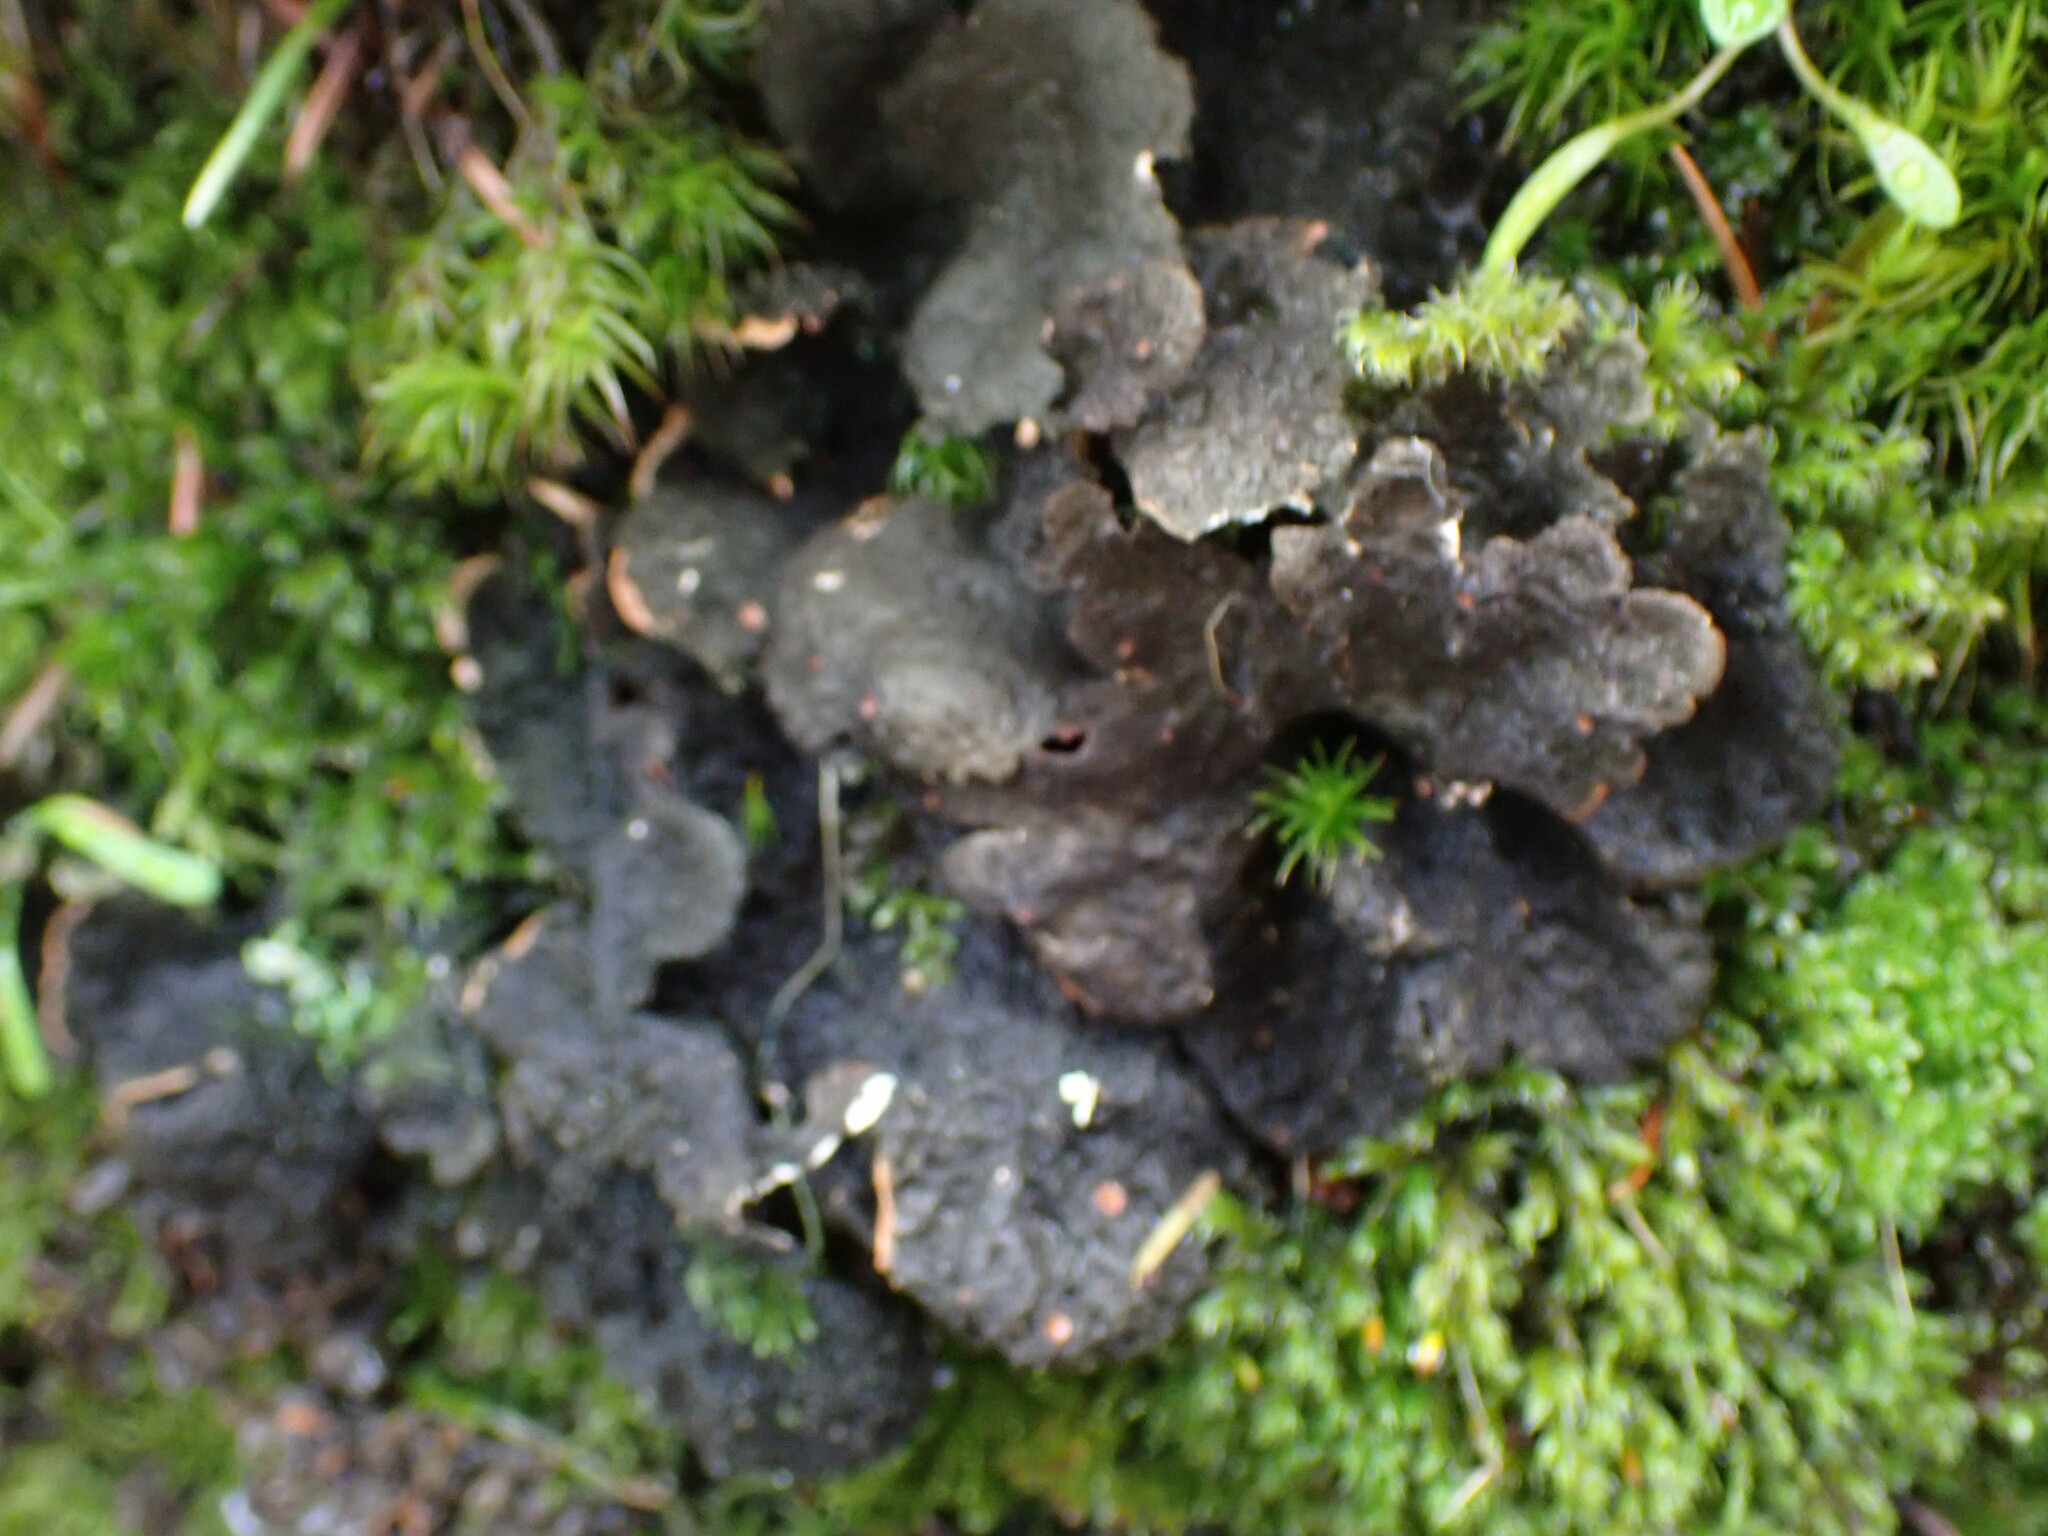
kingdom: Fungi
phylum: Ascomycota
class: Lecanoromycetes
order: Peltigerales
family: Lobariaceae
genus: Sticta
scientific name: Sticta fuliginosa
